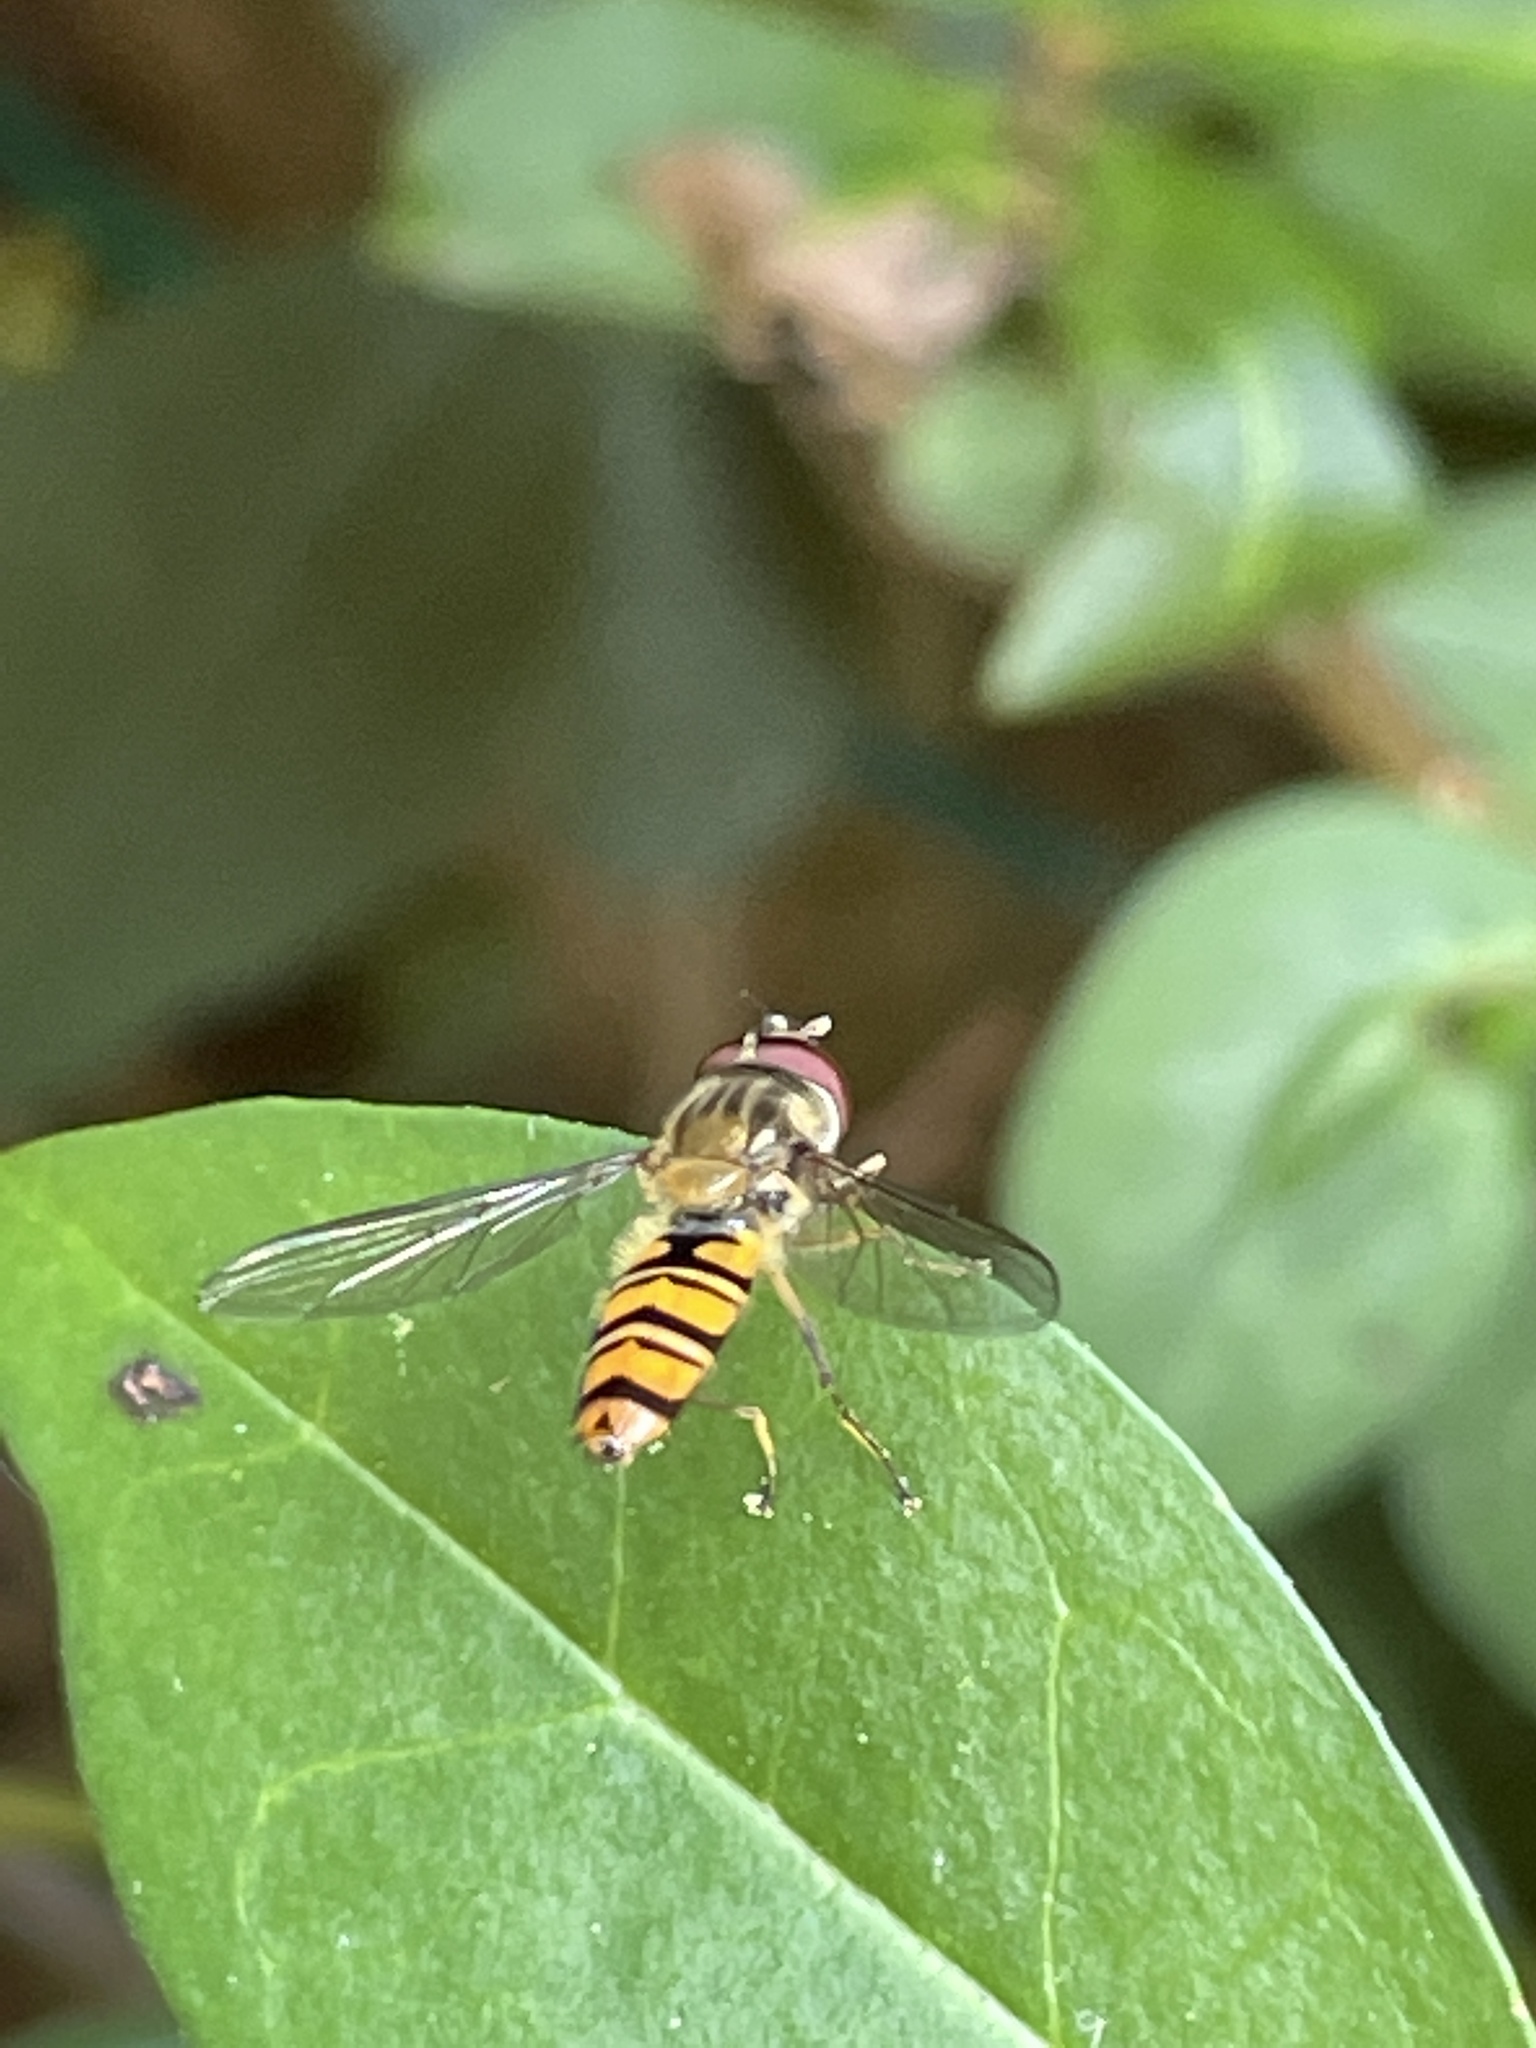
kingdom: Animalia
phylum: Arthropoda
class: Insecta
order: Diptera
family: Syrphidae
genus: Episyrphus
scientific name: Episyrphus balteatus
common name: Marmalade hoverfly
